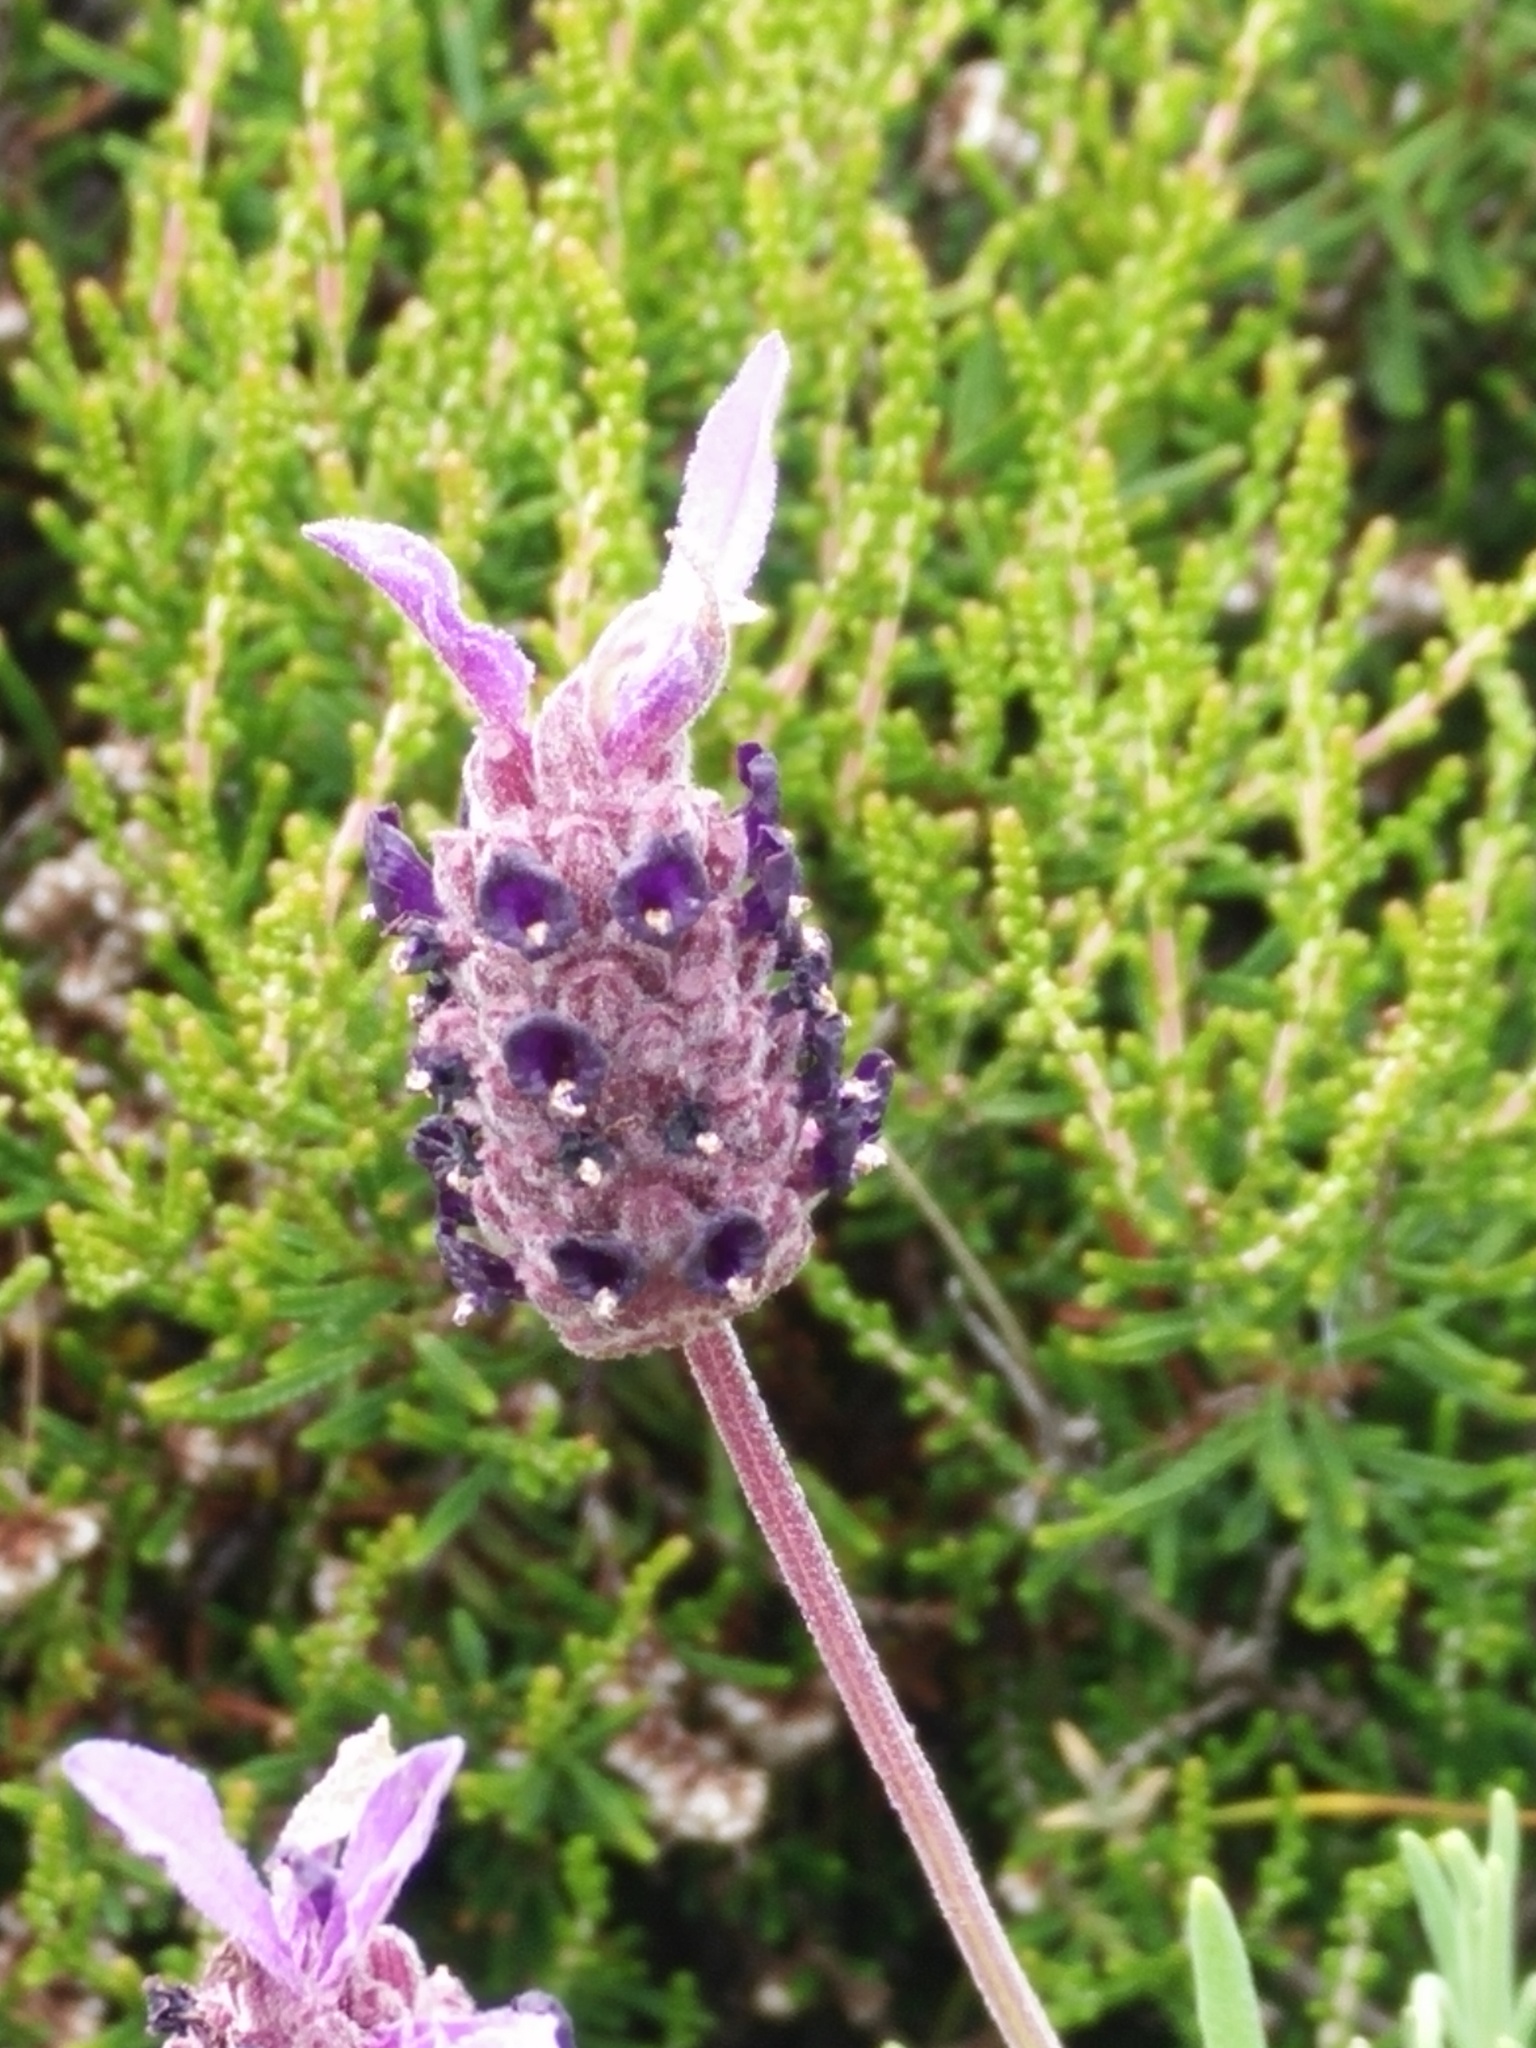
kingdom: Plantae
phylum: Tracheophyta
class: Magnoliopsida
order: Lamiales
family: Lamiaceae
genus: Lavandula
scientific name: Lavandula stoechas
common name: French lavender
